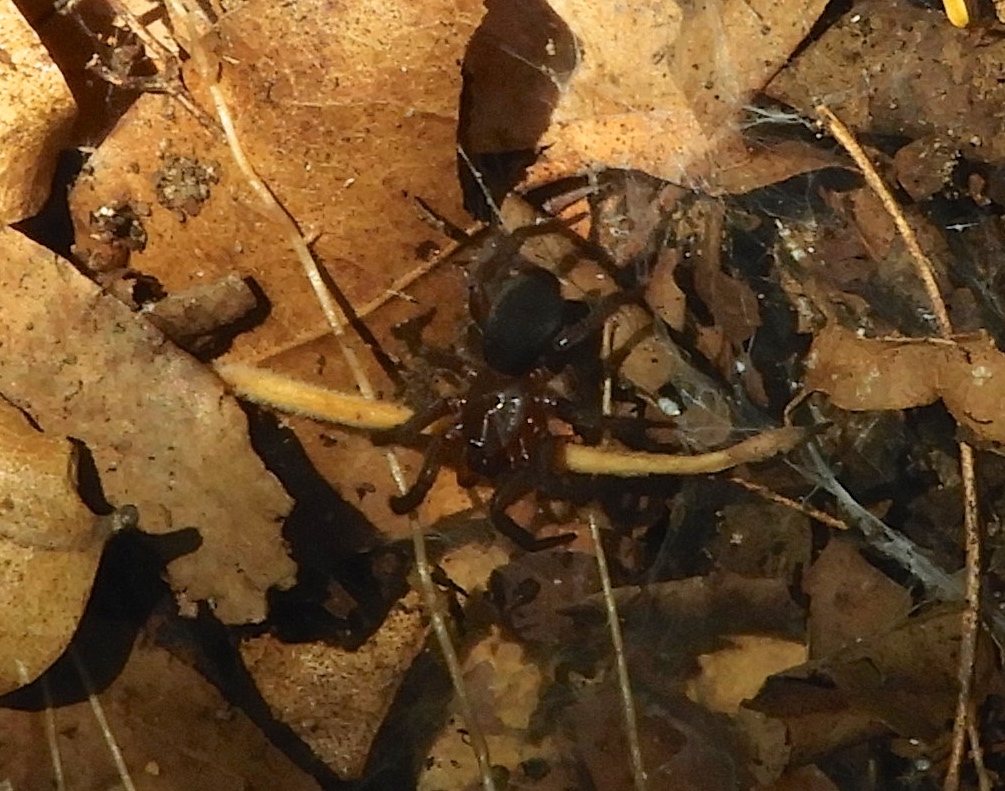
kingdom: Animalia
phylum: Arthropoda
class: Arachnida
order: Araneae
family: Euagridae
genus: Euagrus
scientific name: Euagrus
